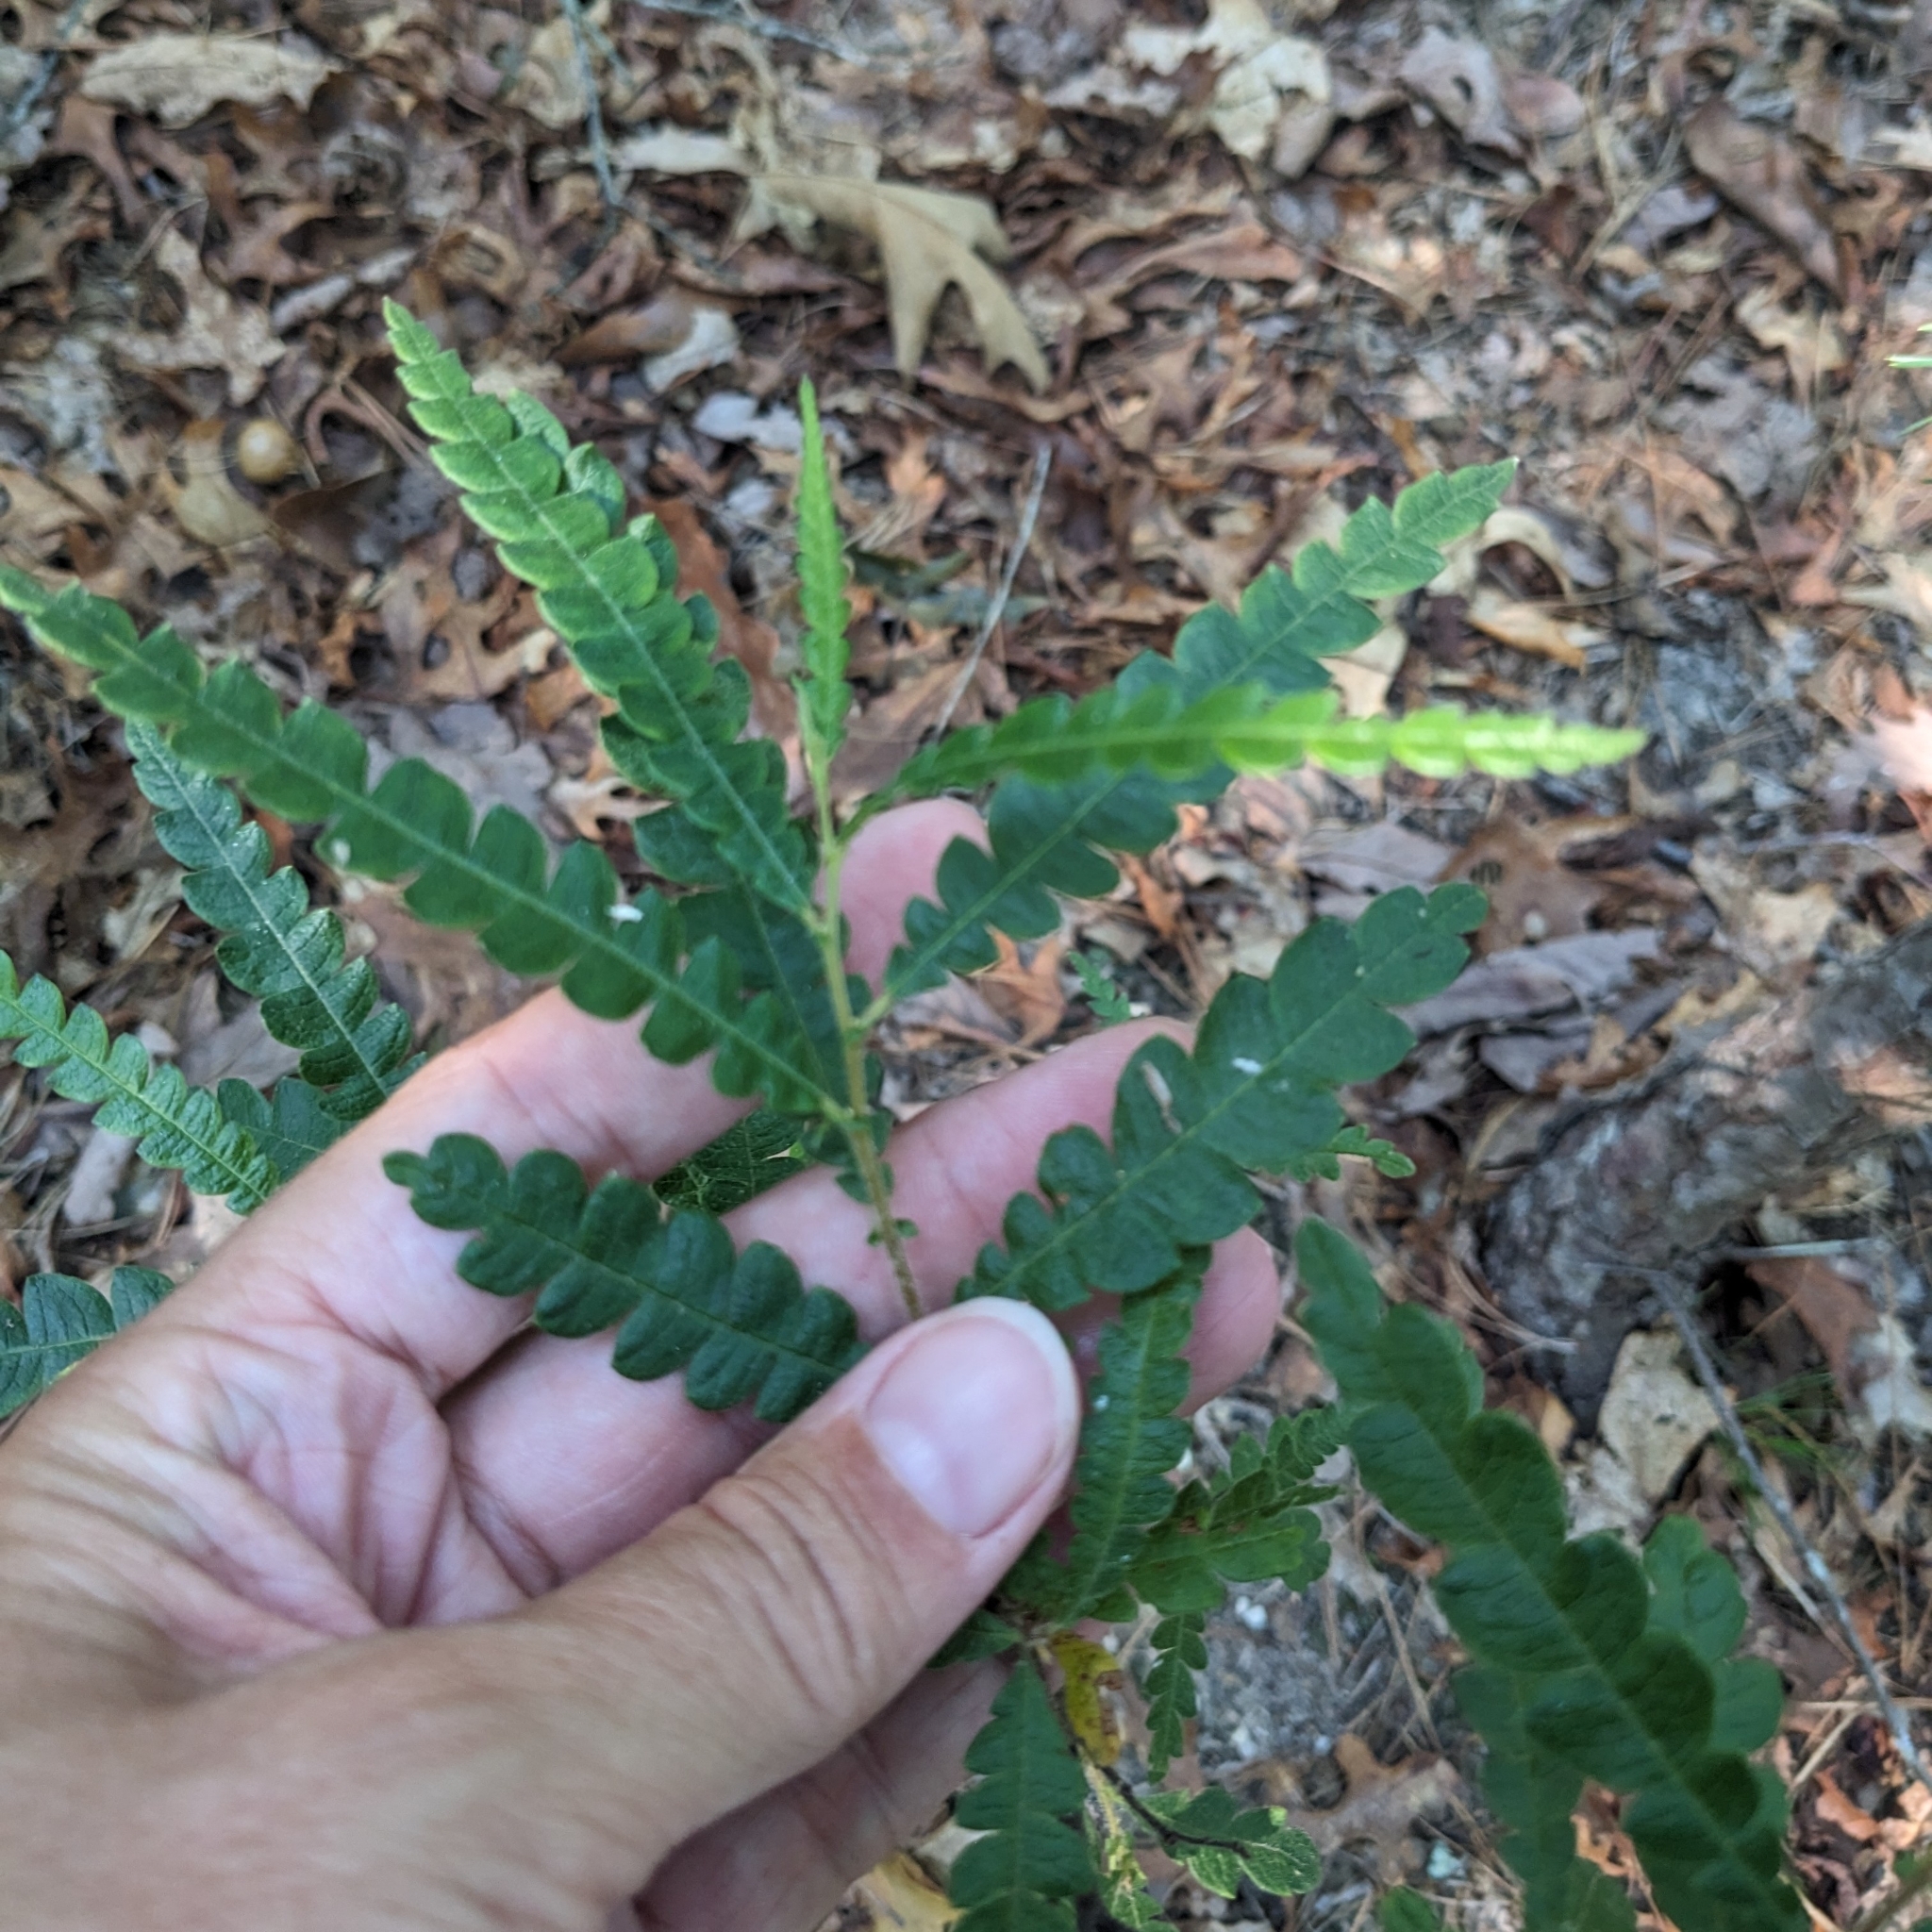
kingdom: Plantae
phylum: Tracheophyta
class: Magnoliopsida
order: Fagales
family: Myricaceae
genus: Comptonia
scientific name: Comptonia peregrina
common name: Sweet-fern
